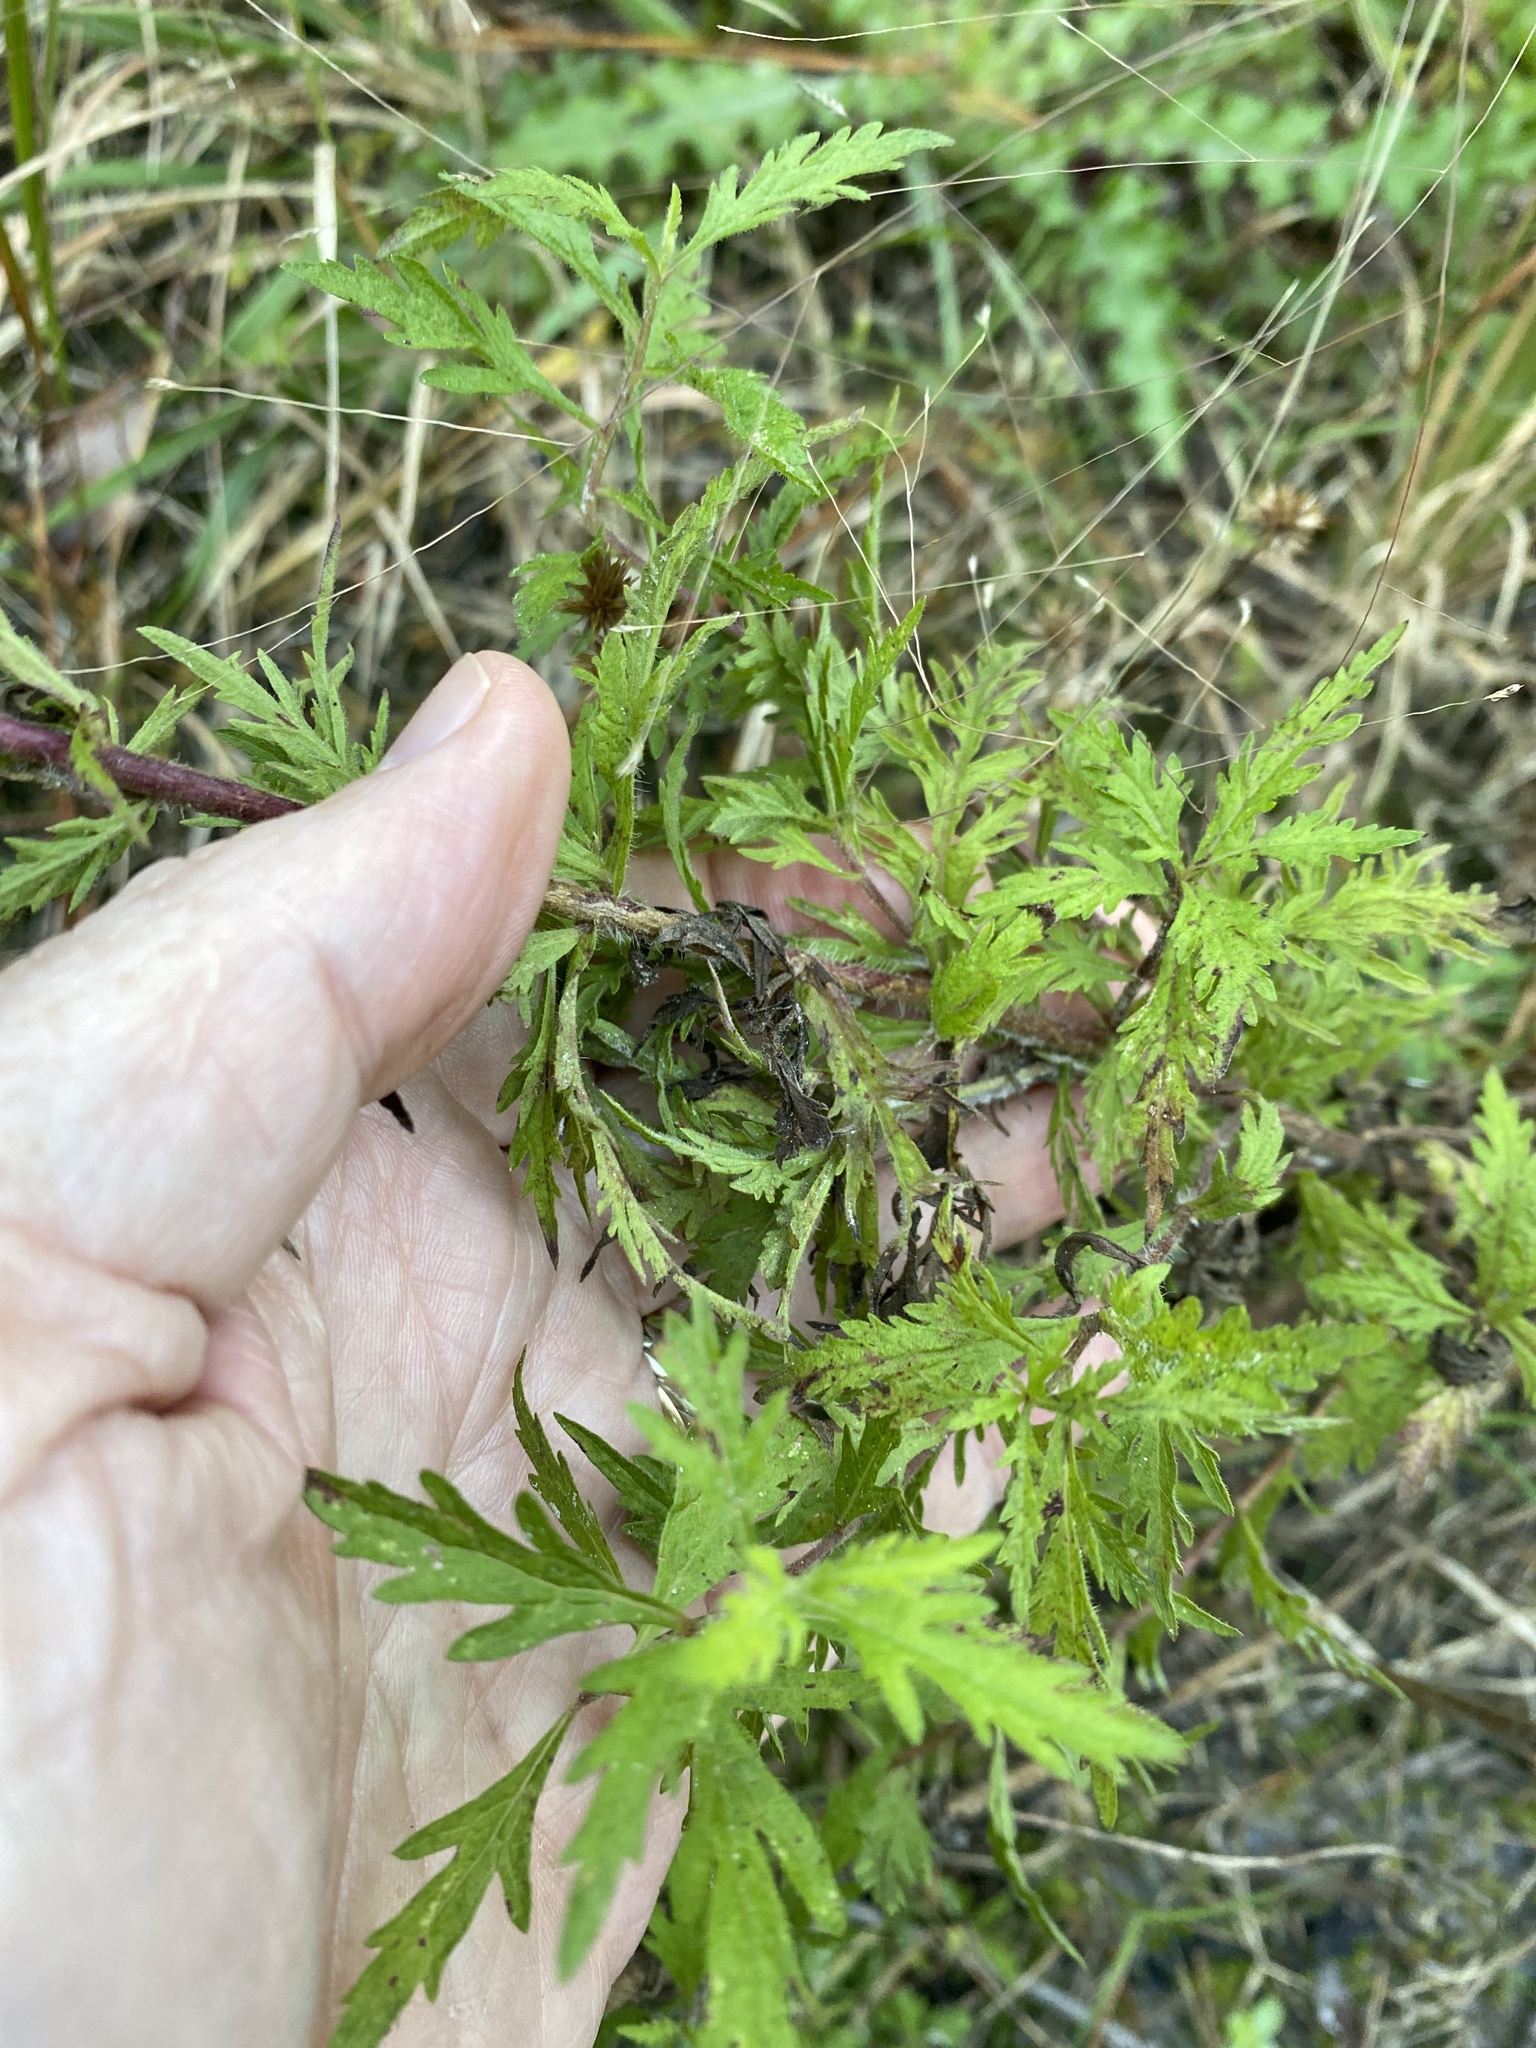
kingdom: Plantae
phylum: Tracheophyta
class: Magnoliopsida
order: Asterales
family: Asteraceae
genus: Eupatorium
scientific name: Eupatorium pinnatifidum
